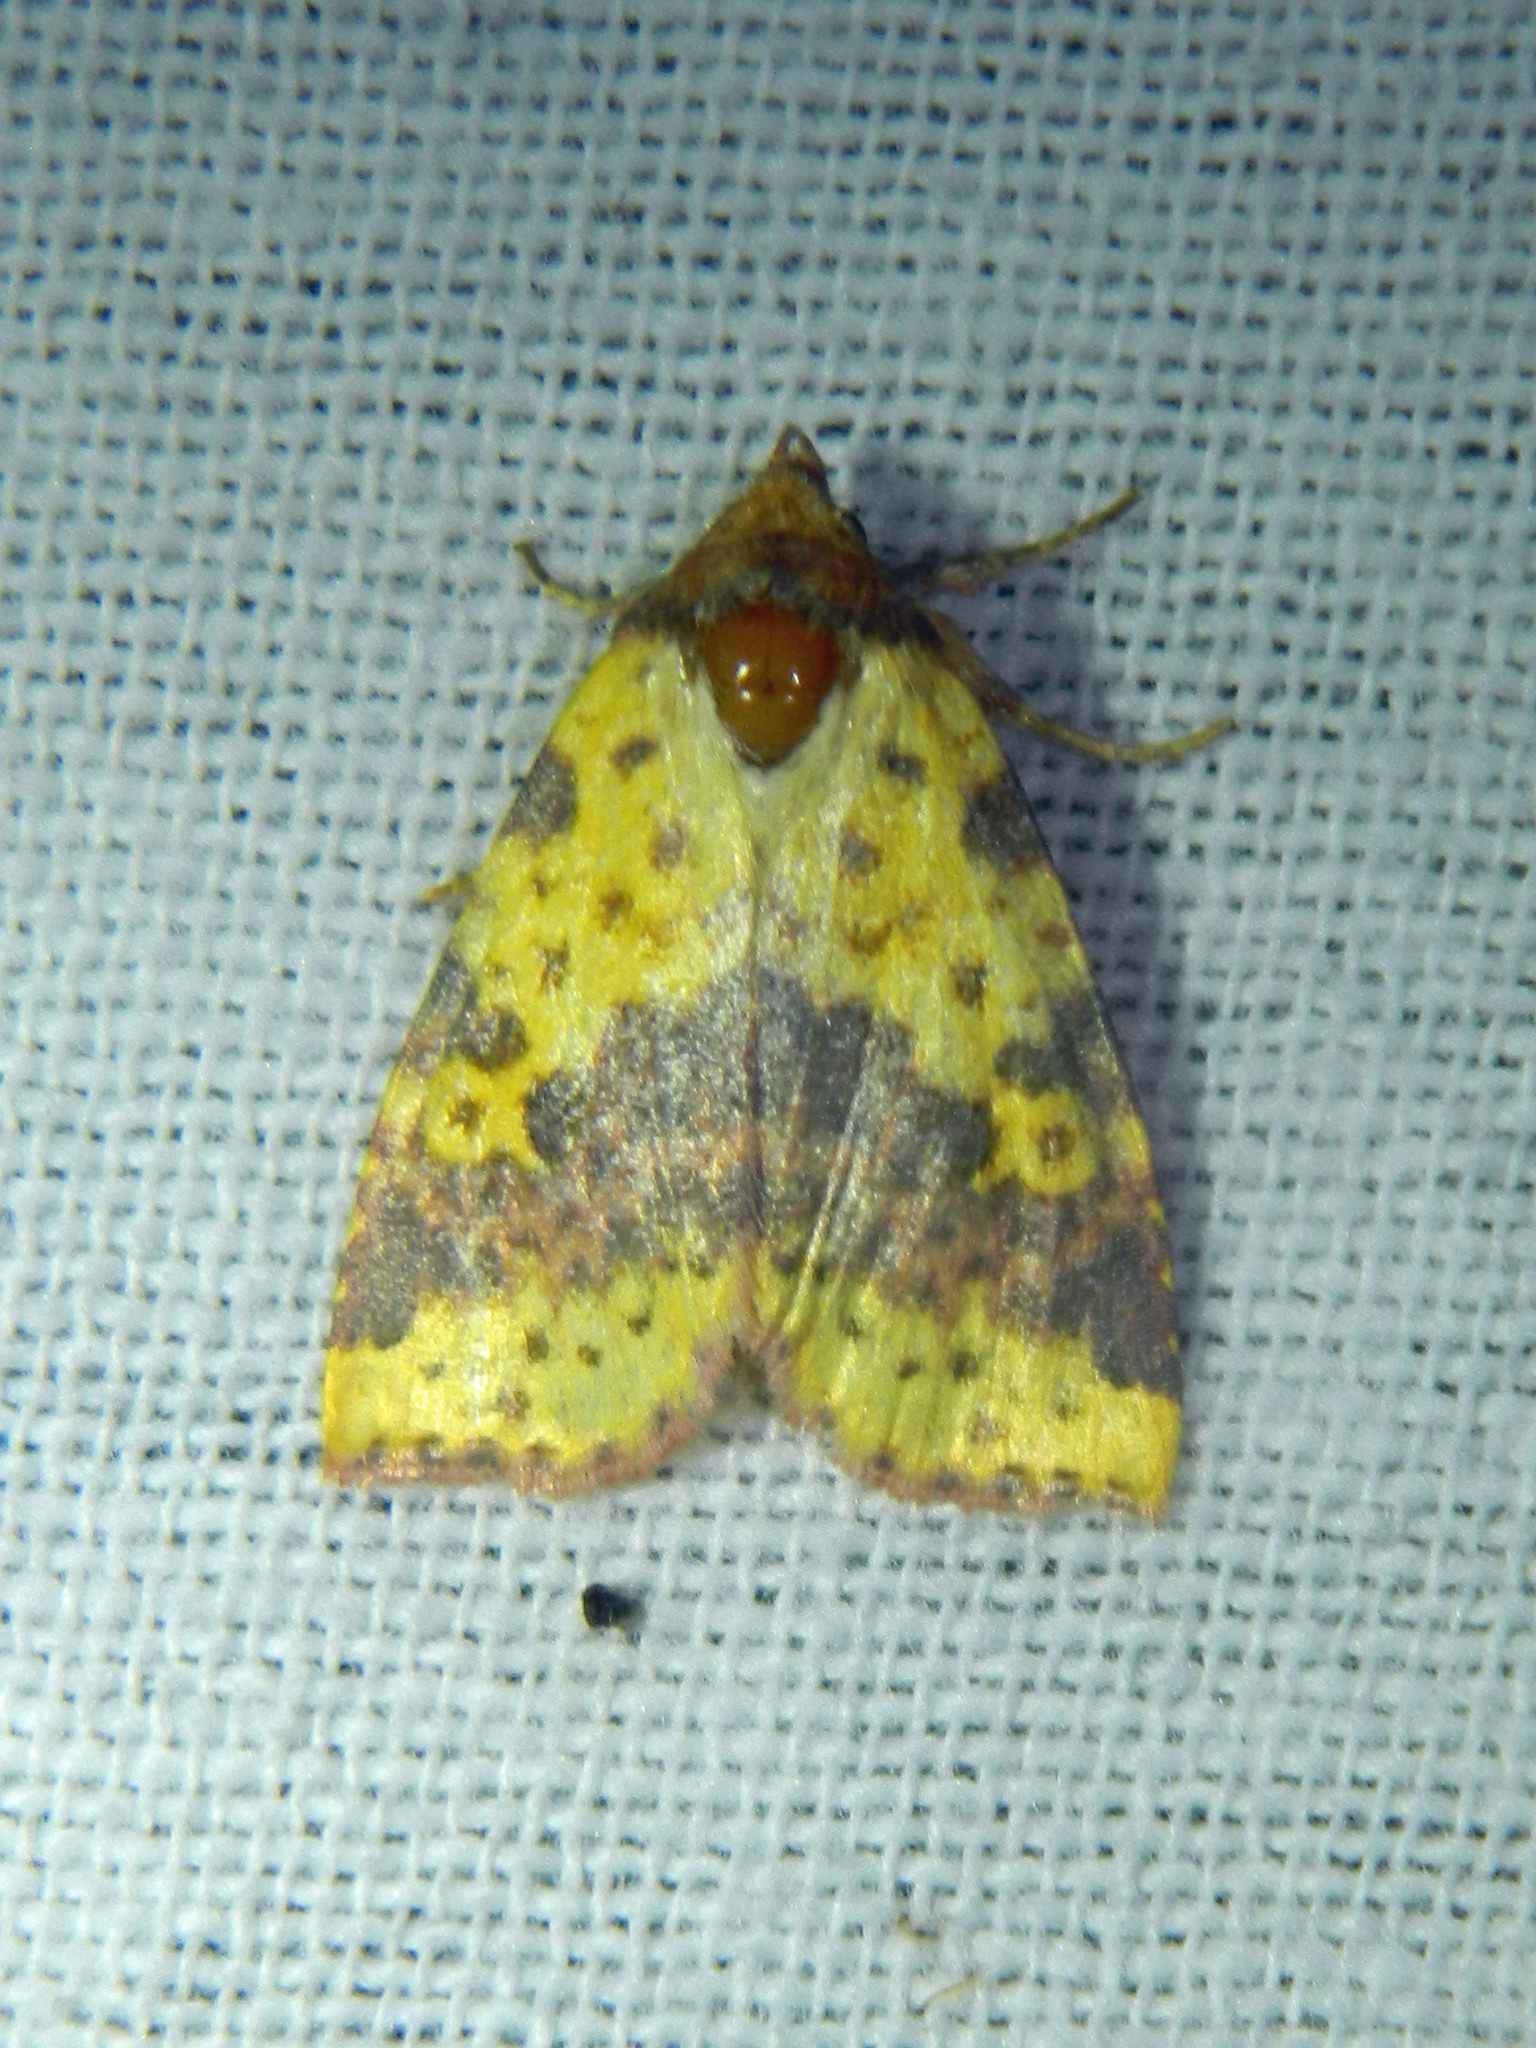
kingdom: Animalia
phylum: Arthropoda
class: Insecta
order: Lepidoptera
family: Noctuidae
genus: Xanthia
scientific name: Xanthia tatago
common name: Pink-banded sallow
